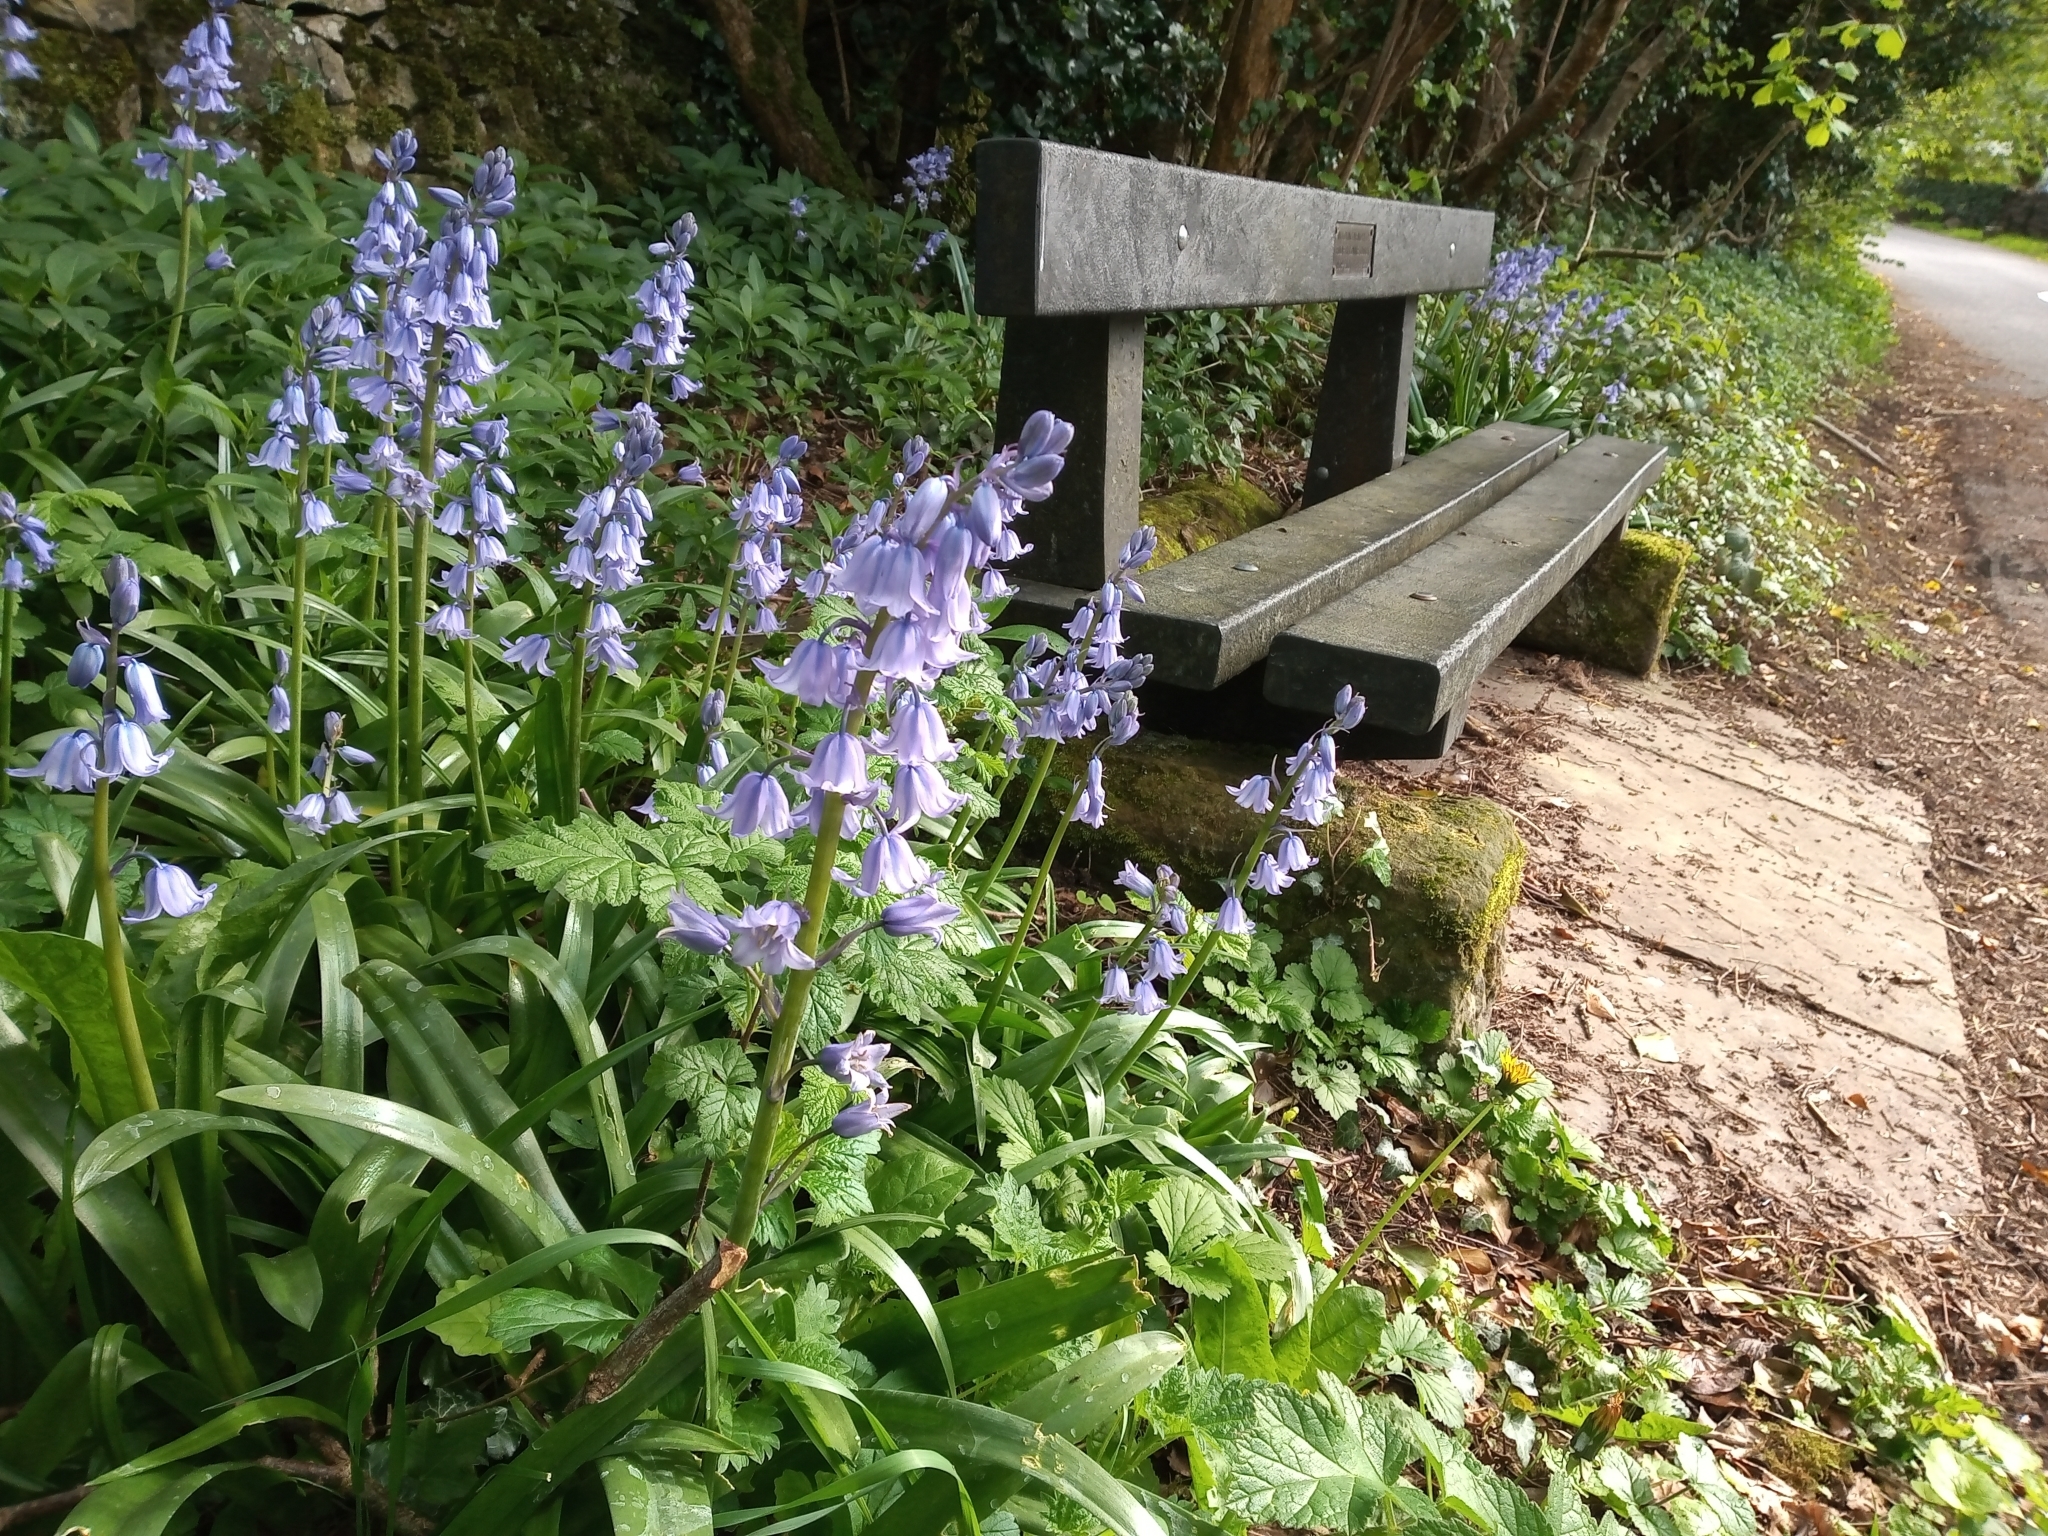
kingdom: Plantae
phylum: Tracheophyta
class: Liliopsida
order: Asparagales
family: Asparagaceae
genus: Hyacinthoides
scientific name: Hyacinthoides hispanica
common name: Spanish bluebell
